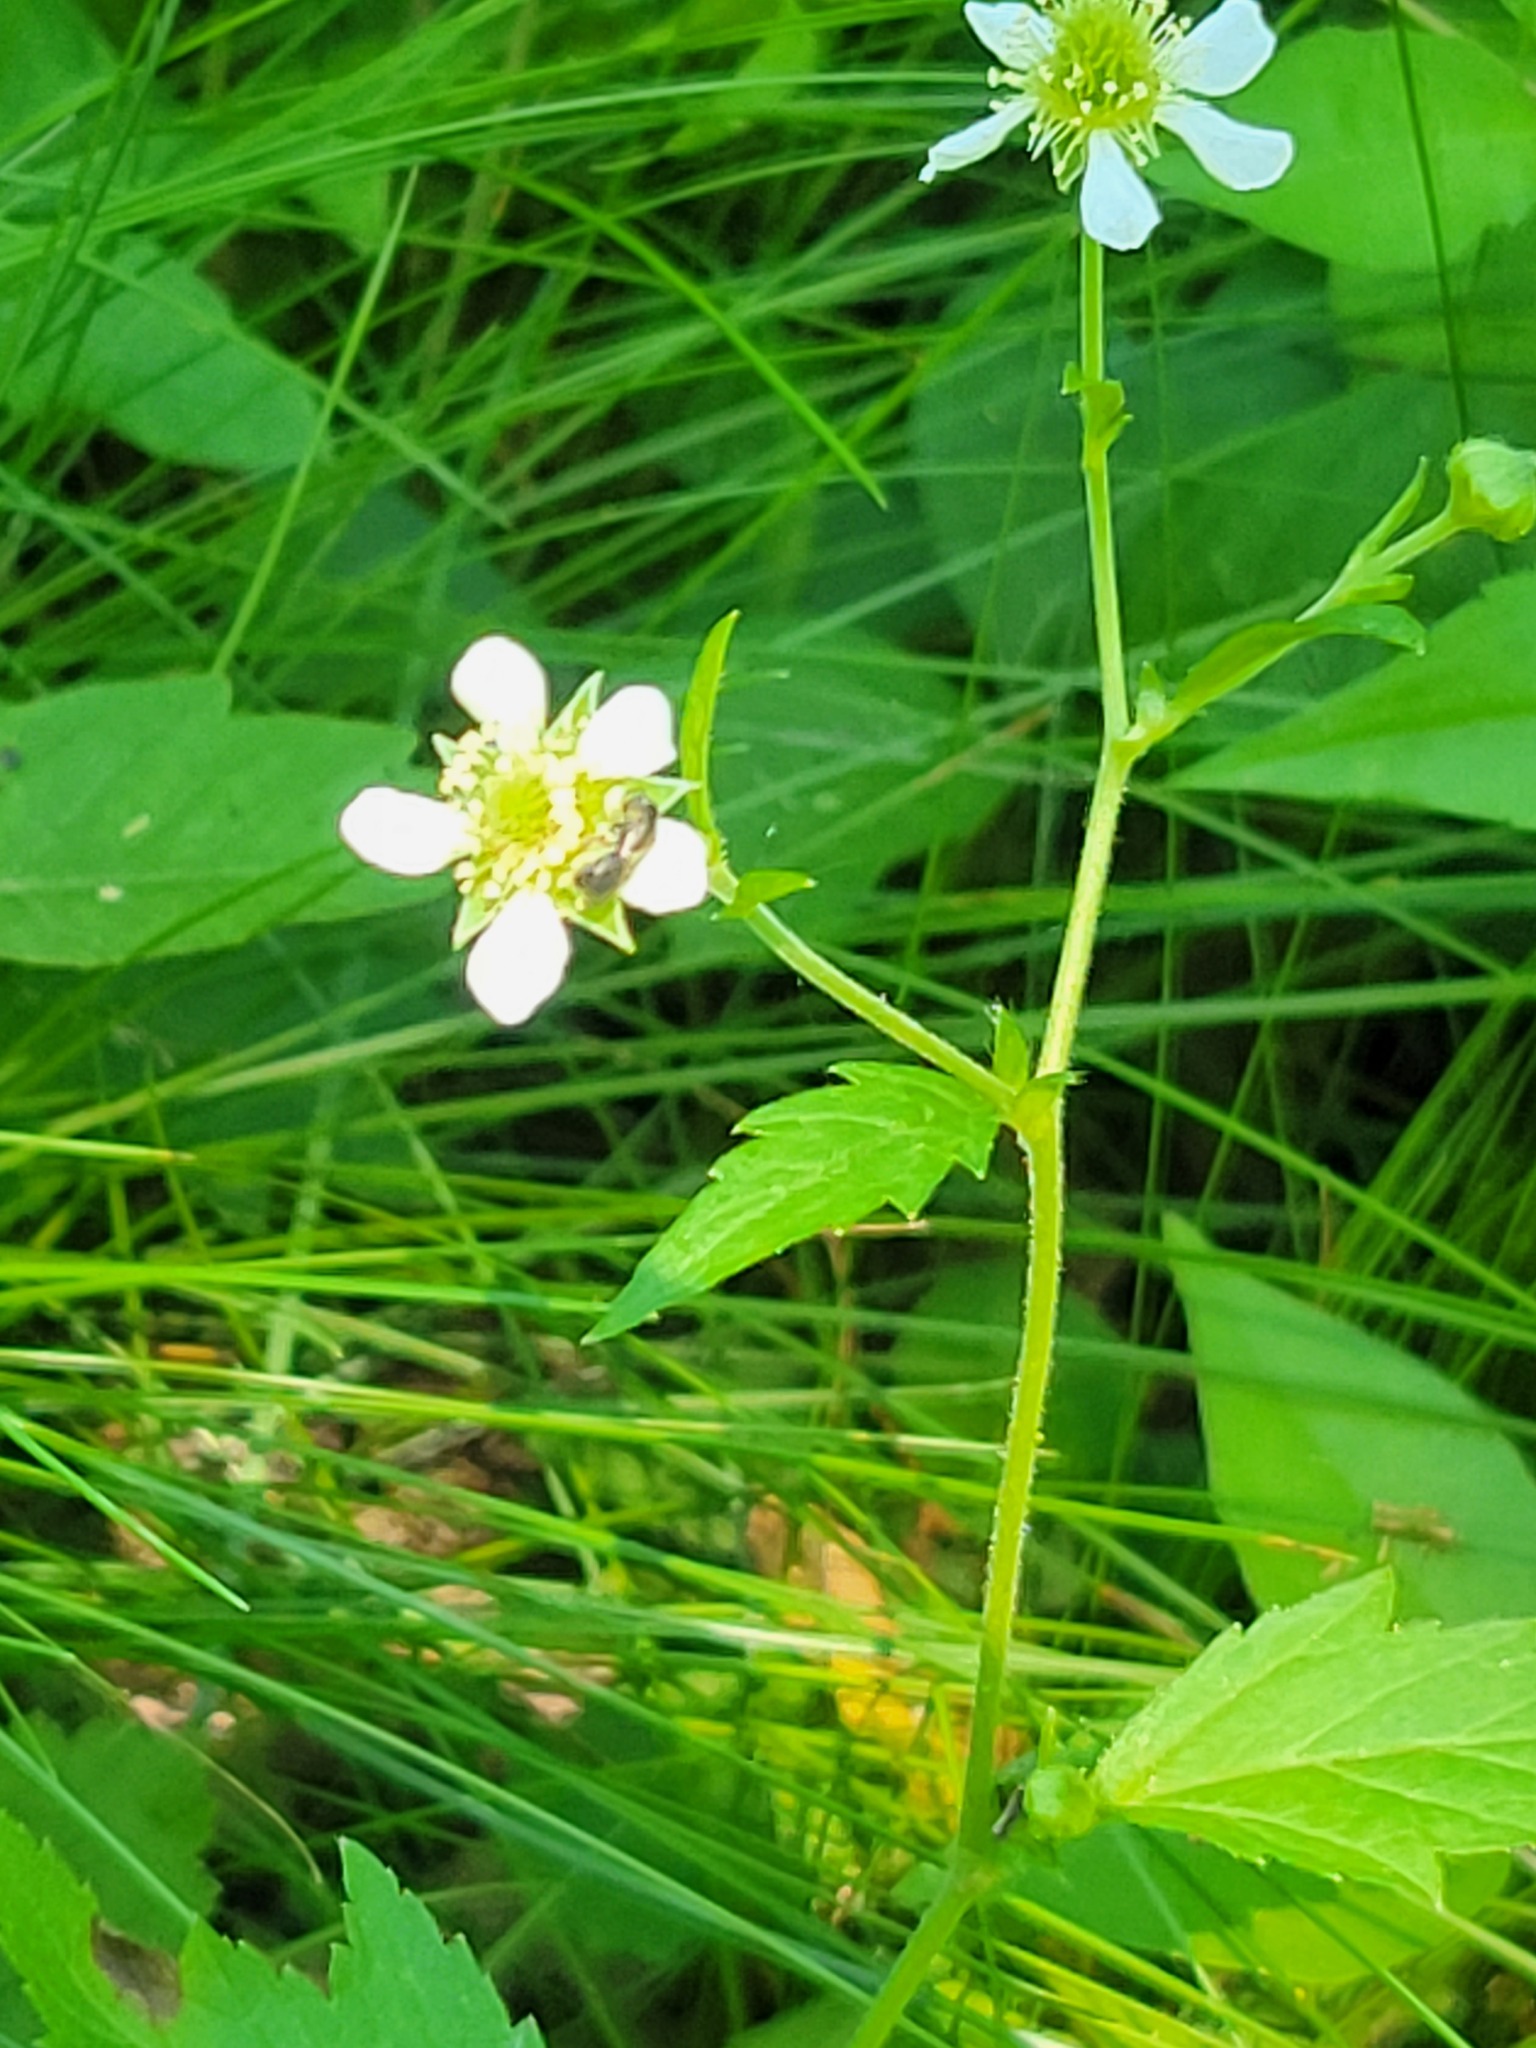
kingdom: Plantae
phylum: Tracheophyta
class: Magnoliopsida
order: Rosales
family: Rosaceae
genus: Geum
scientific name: Geum canadense
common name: White avens
